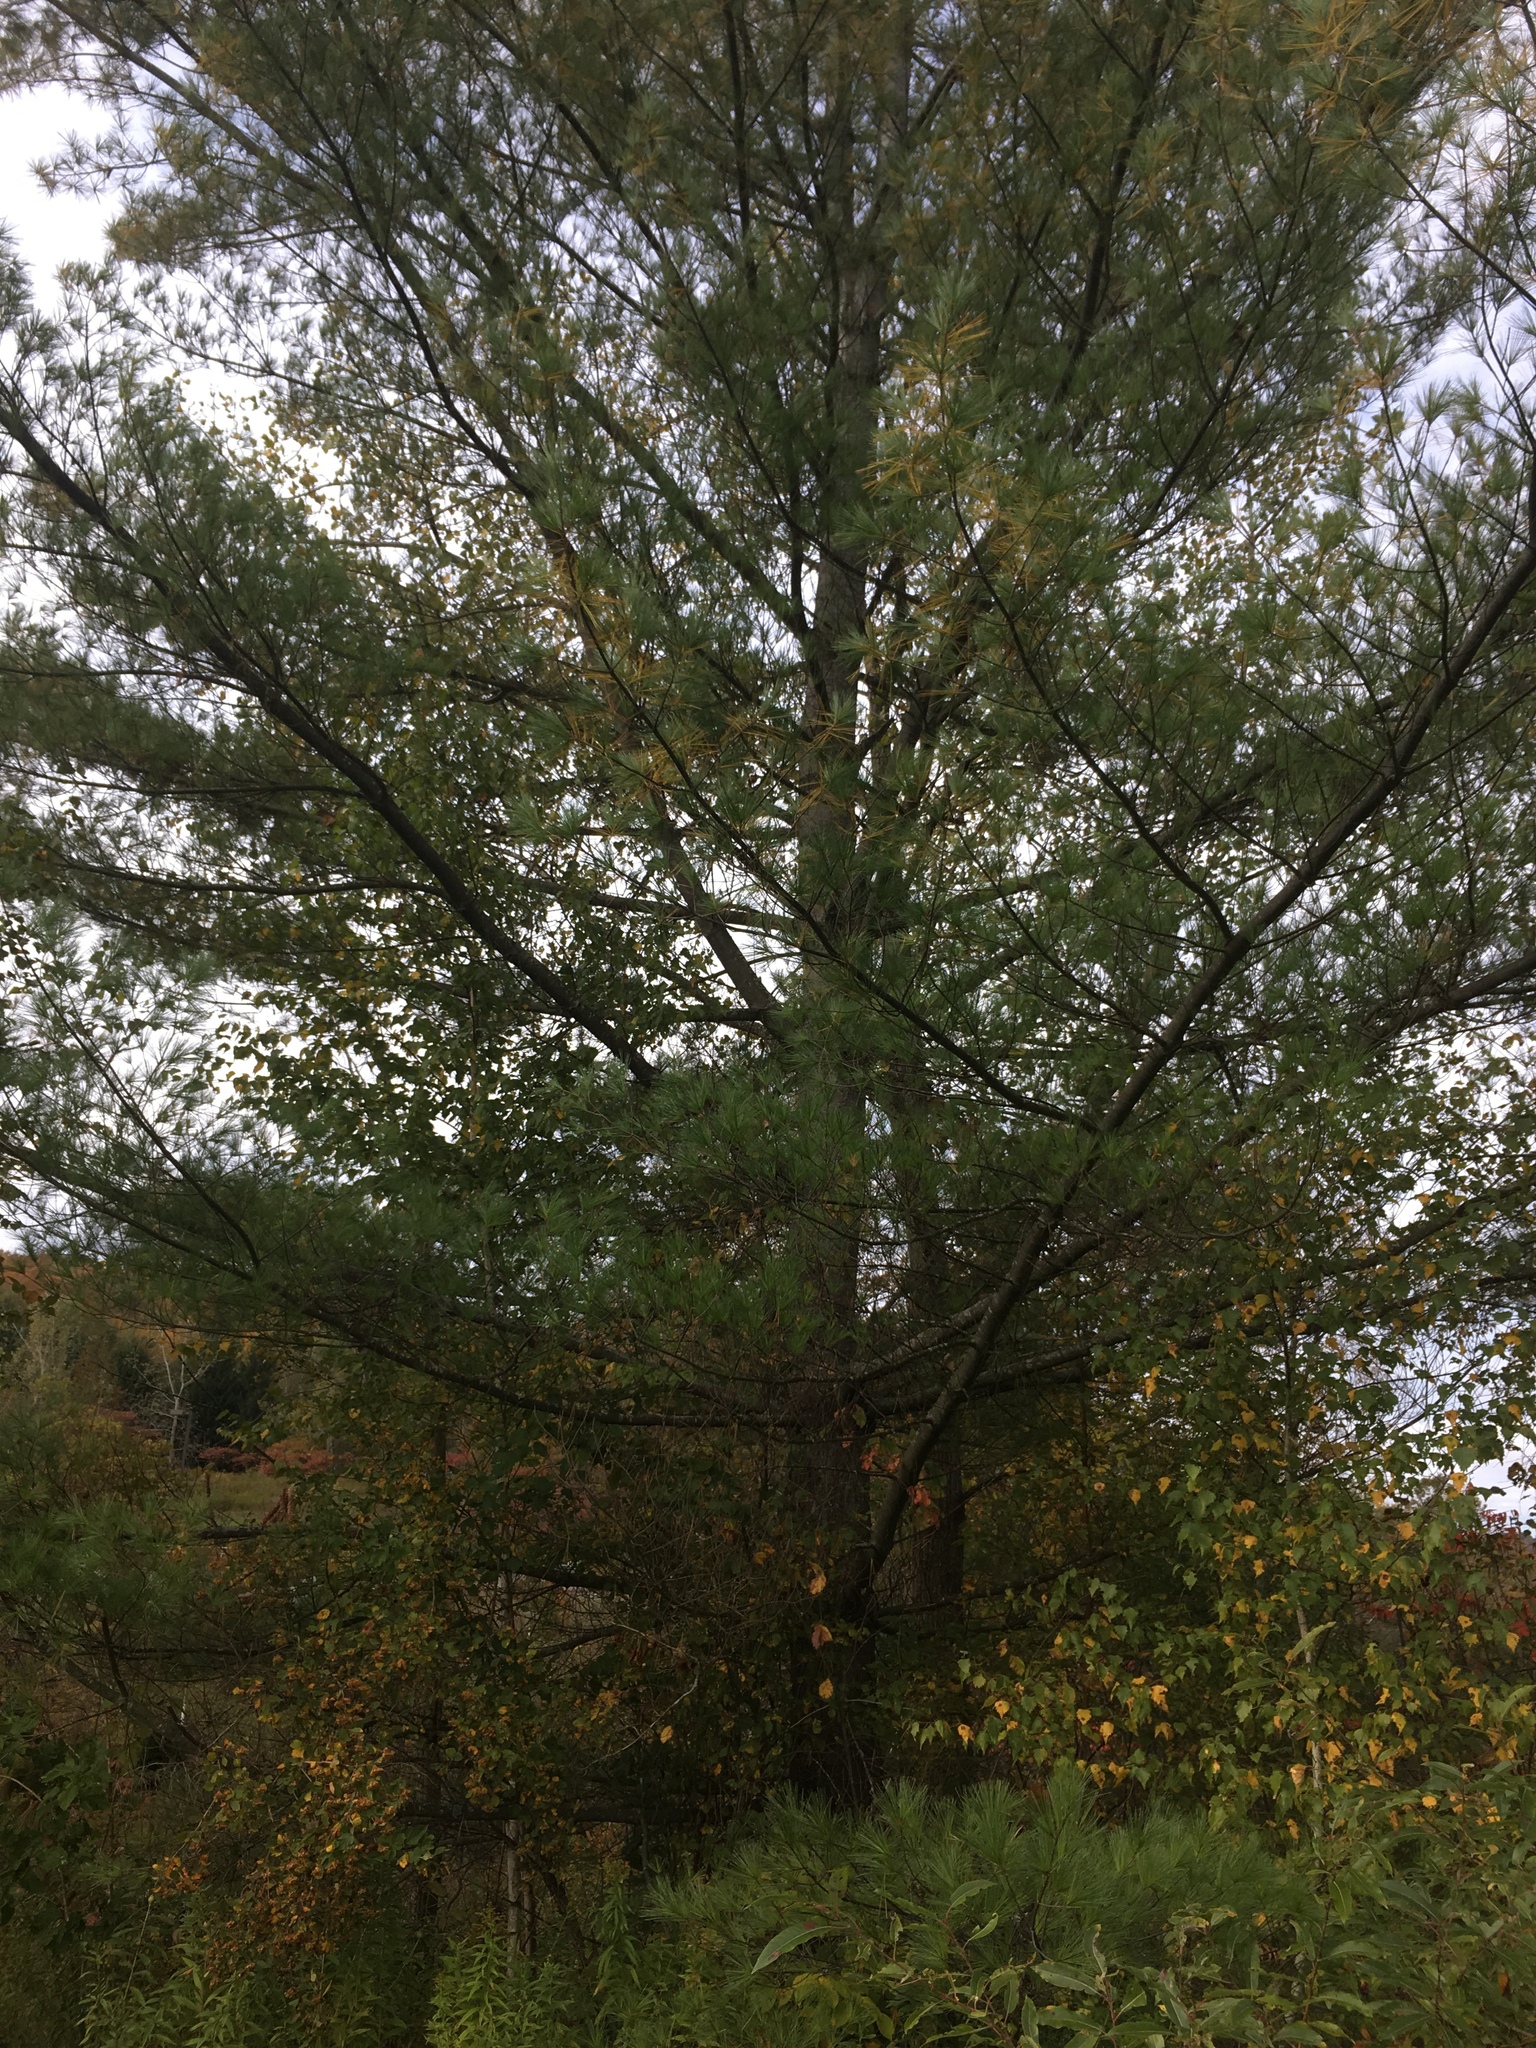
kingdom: Plantae
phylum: Tracheophyta
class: Pinopsida
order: Pinales
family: Pinaceae
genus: Pinus
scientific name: Pinus strobus
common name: Weymouth pine
